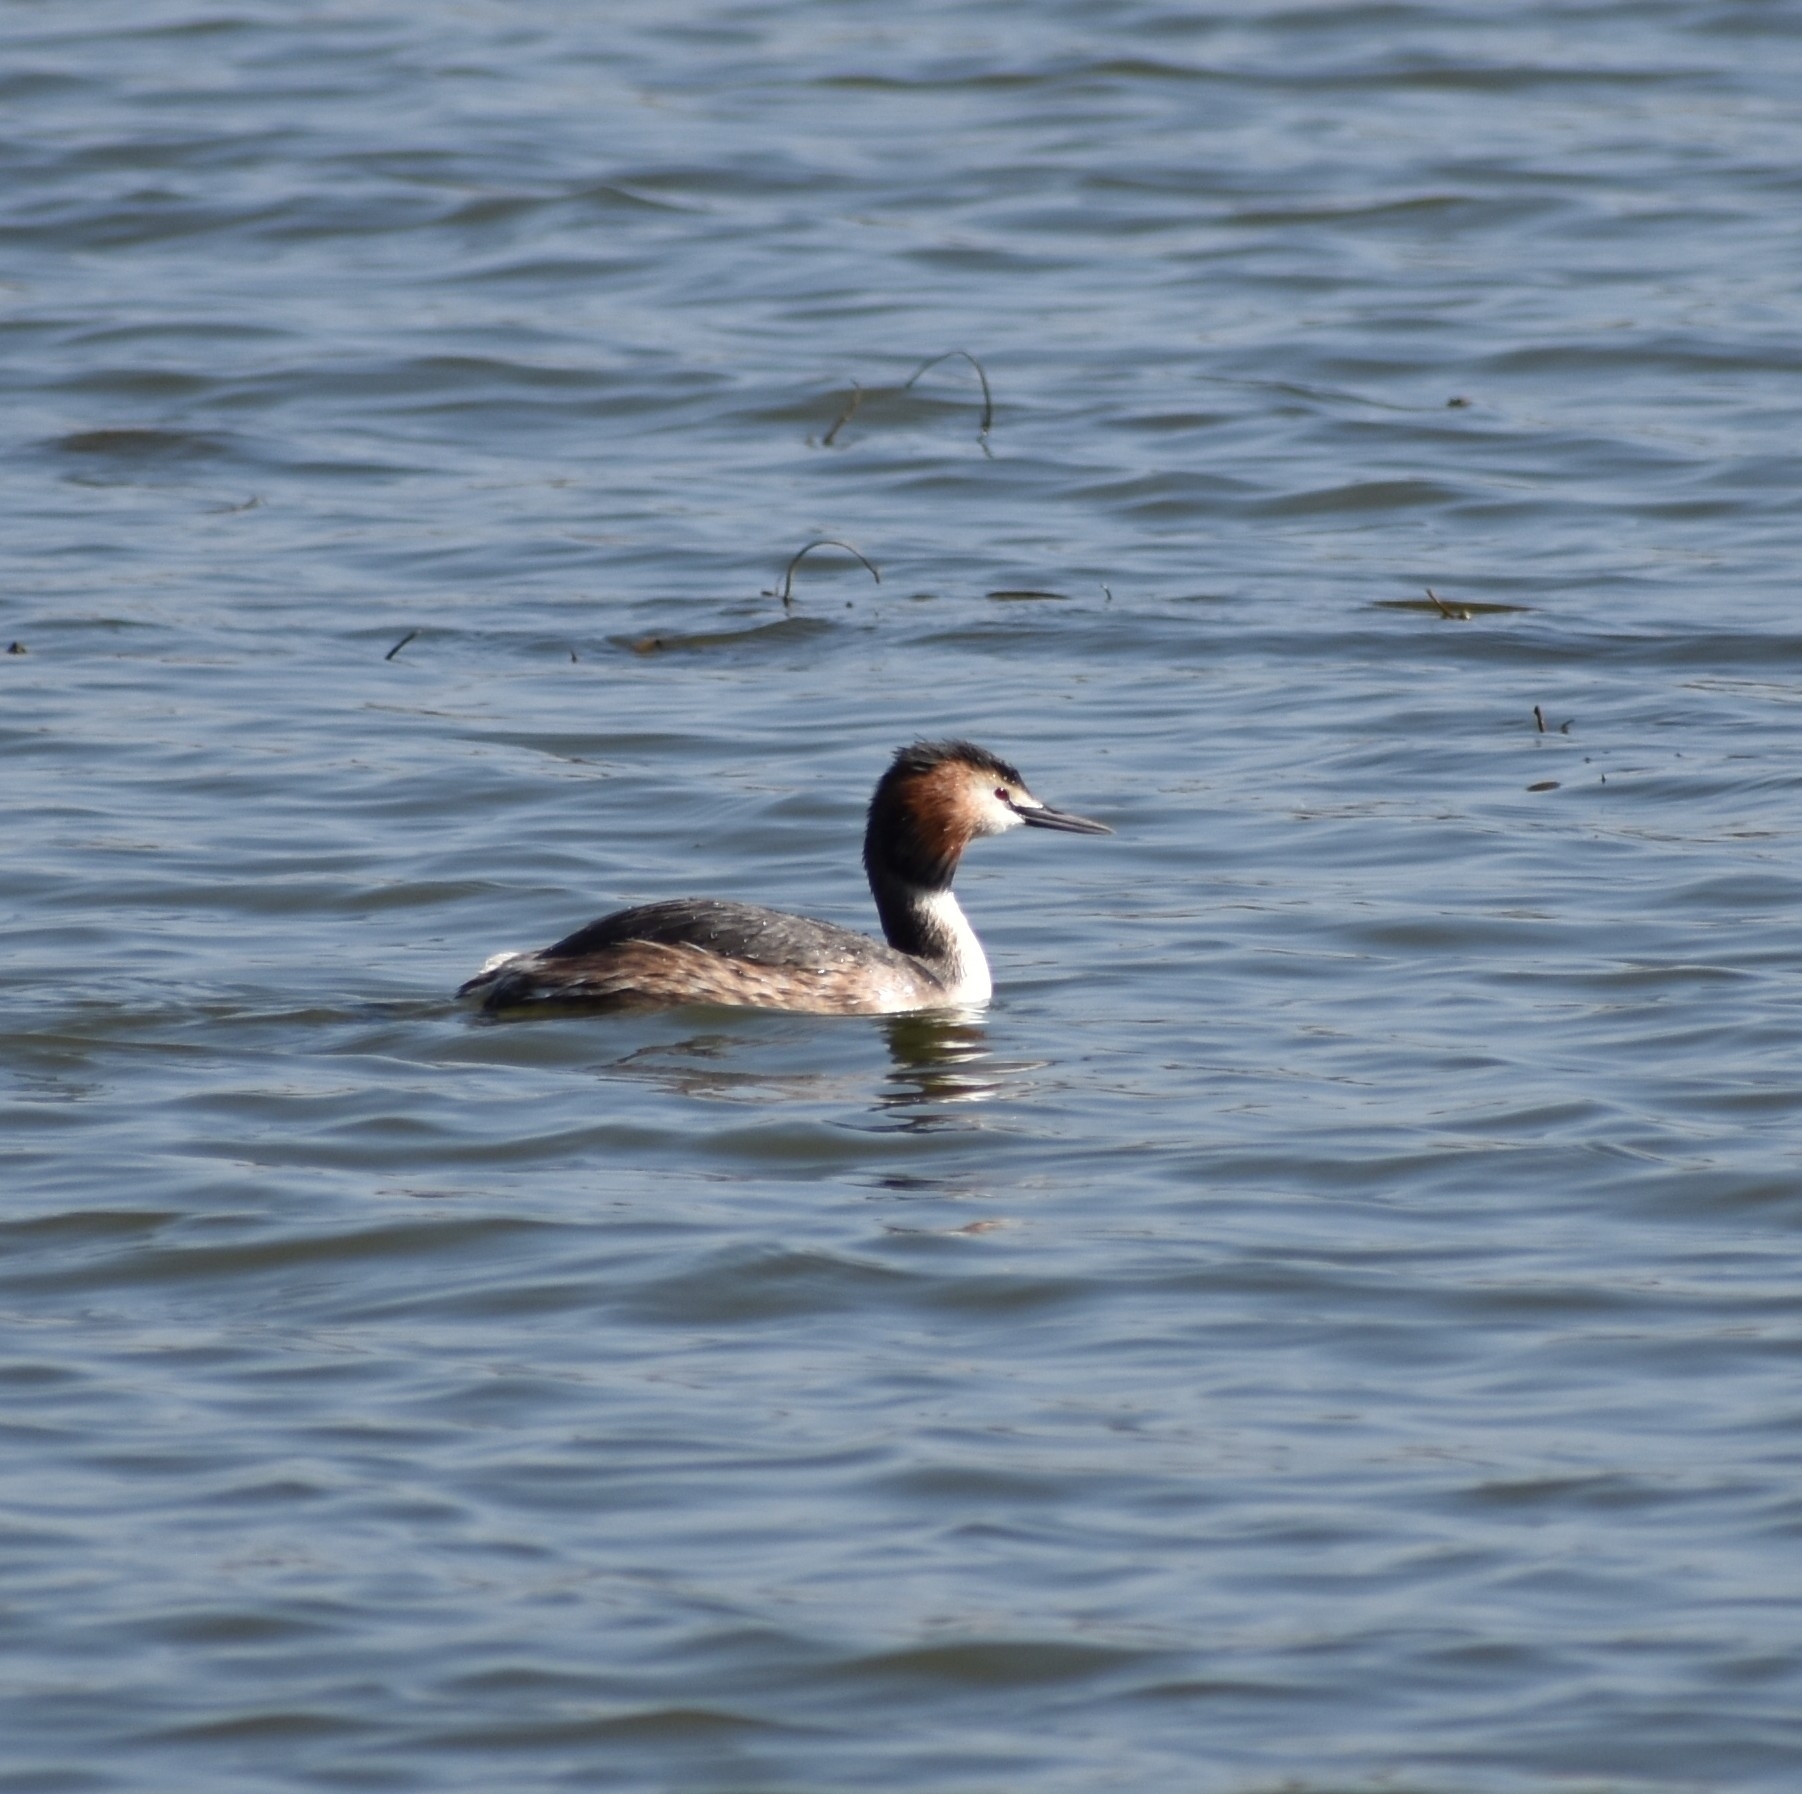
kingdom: Animalia
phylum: Chordata
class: Aves
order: Podicipediformes
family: Podicipedidae
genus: Podiceps
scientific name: Podiceps cristatus
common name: Great crested grebe
